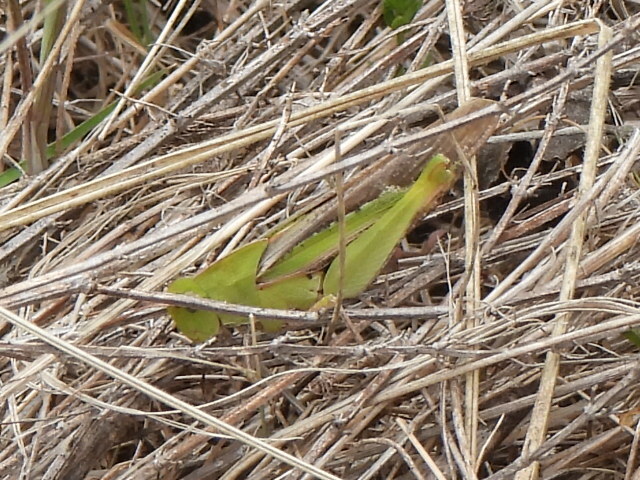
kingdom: Animalia
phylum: Arthropoda
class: Insecta
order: Orthoptera
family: Acrididae
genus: Chortophaga
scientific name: Chortophaga viridifasciata
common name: Green-striped grasshopper
